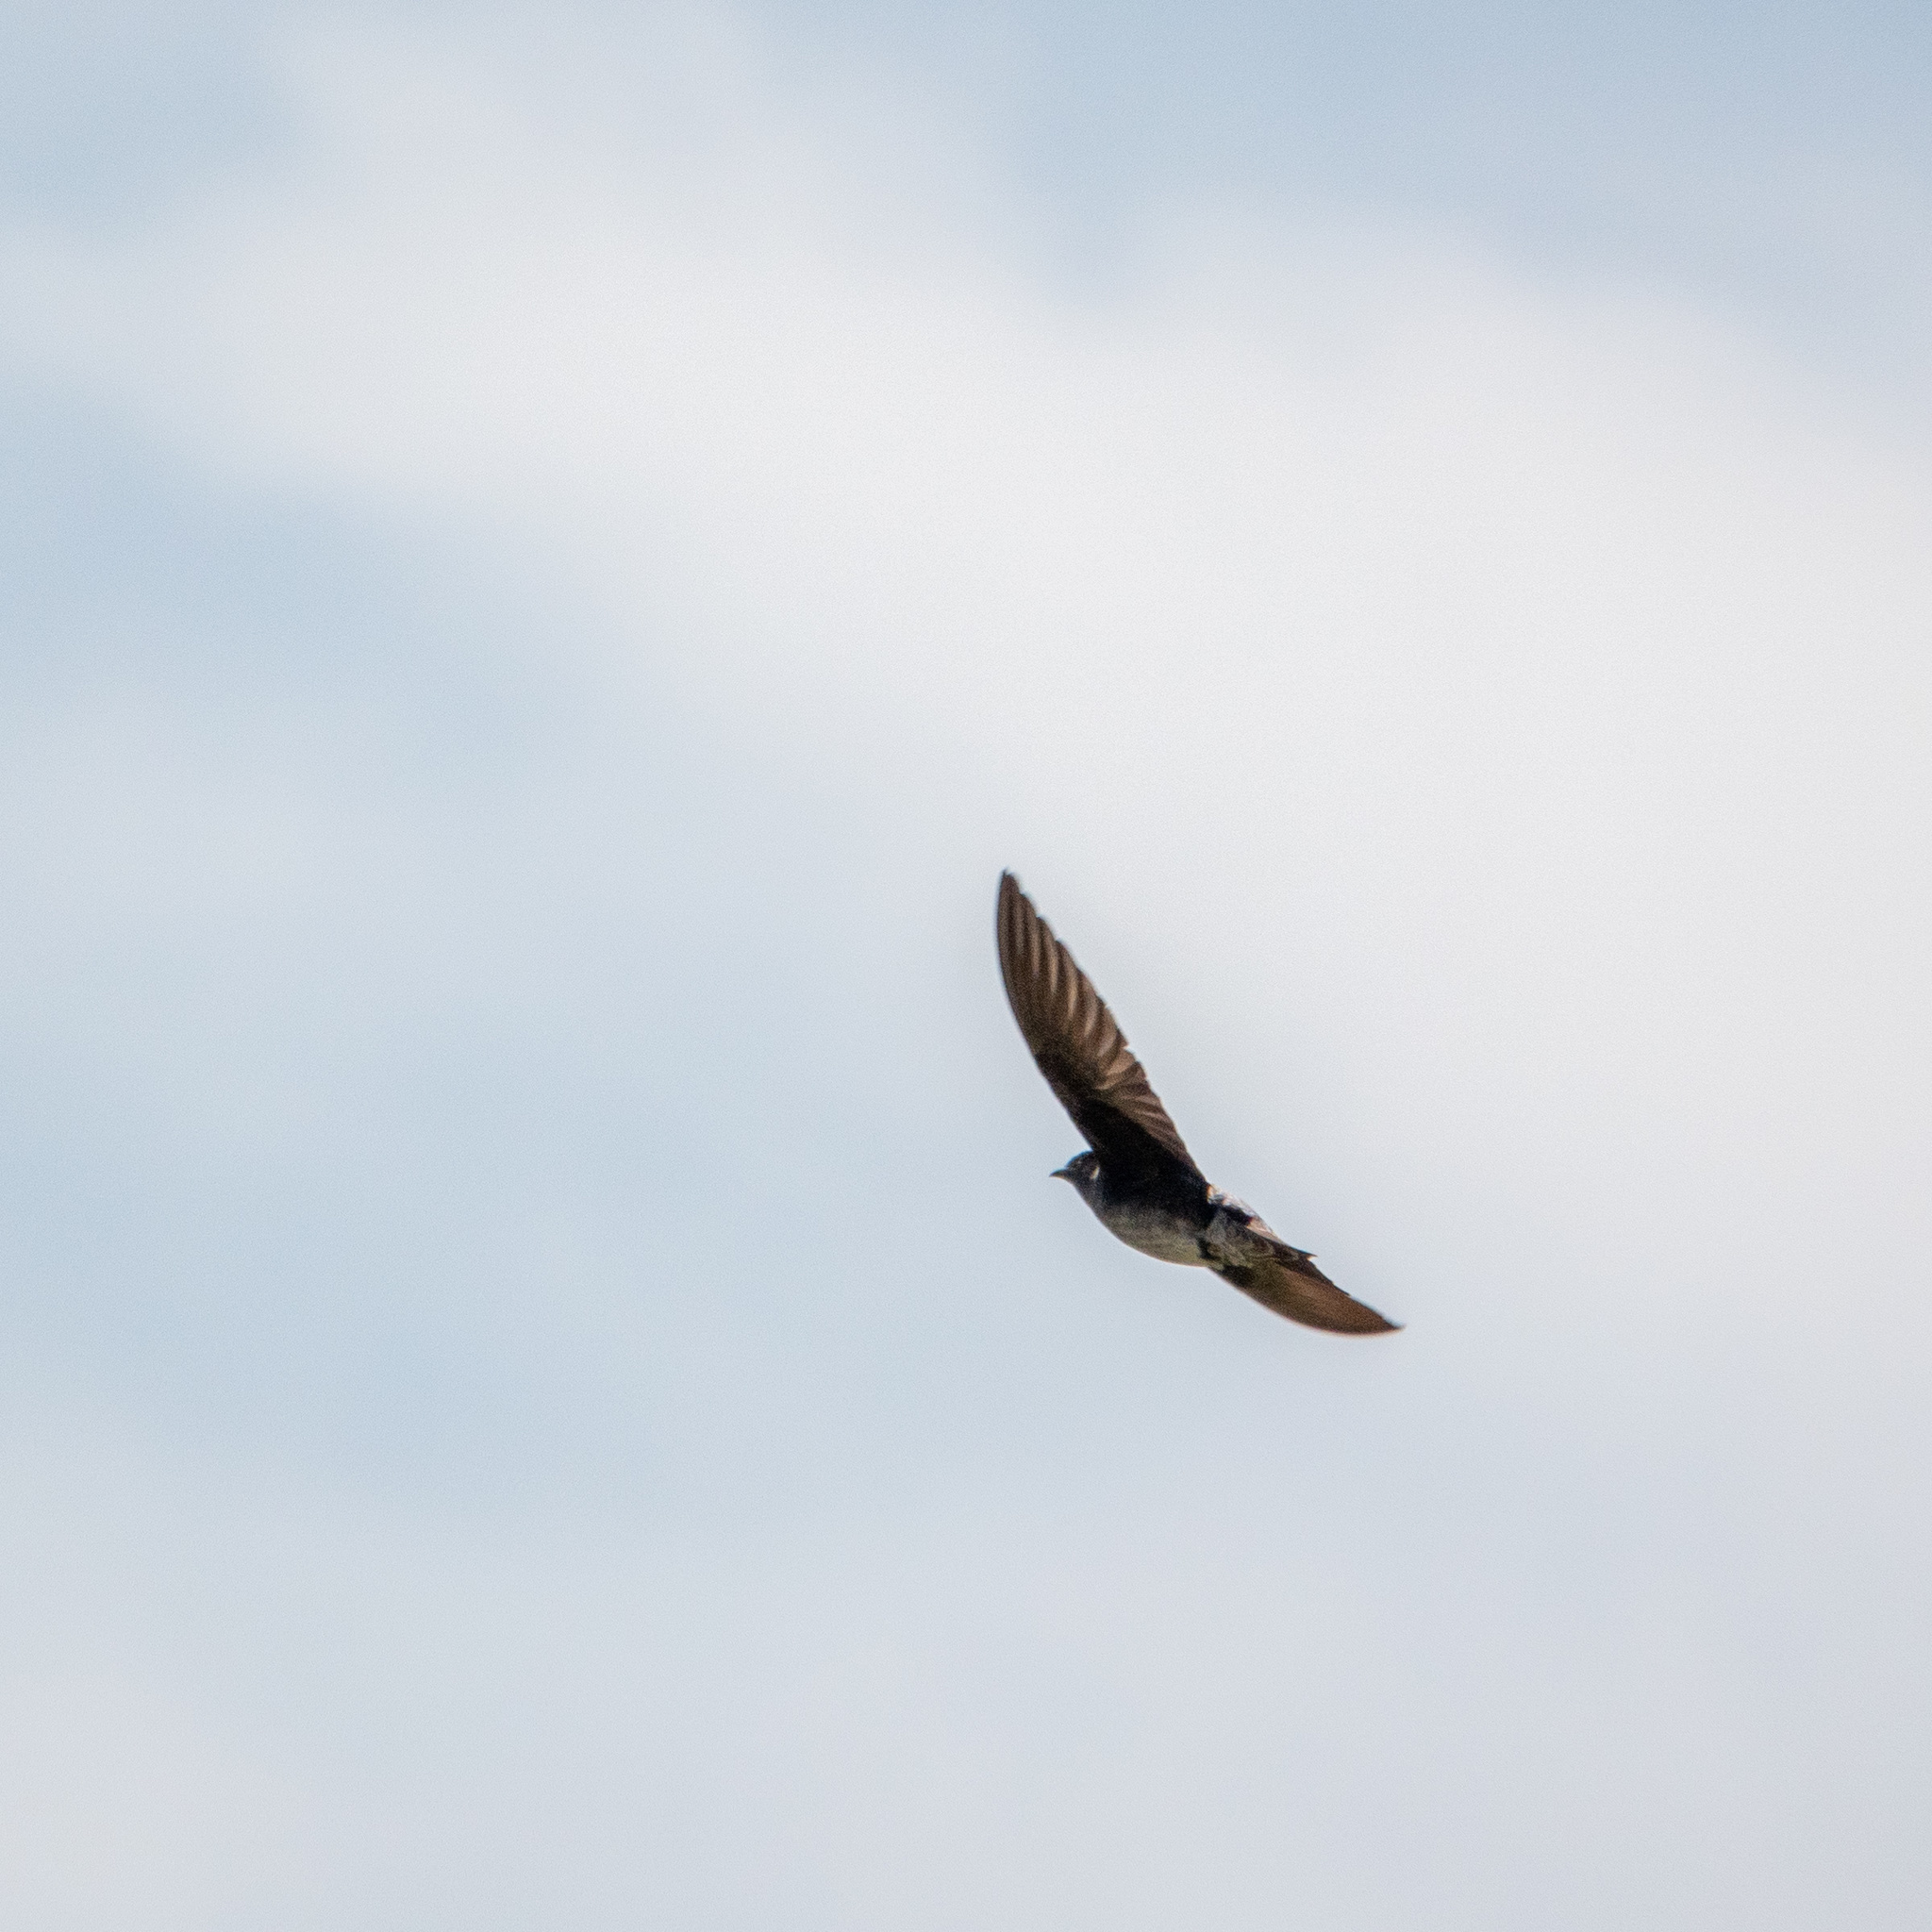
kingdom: Animalia
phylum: Chordata
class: Aves
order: Passeriformes
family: Hirundinidae
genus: Progne
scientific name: Progne subis
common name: Purple martin
